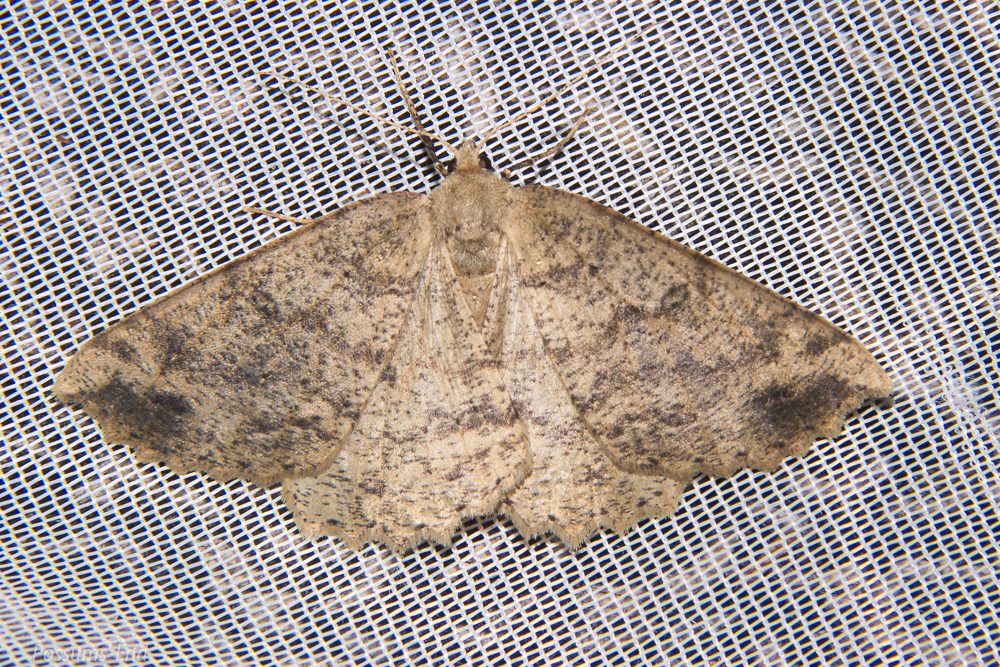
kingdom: Animalia
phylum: Arthropoda
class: Insecta
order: Lepidoptera
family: Geometridae
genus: Cleora
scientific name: Cleora scriptaria
